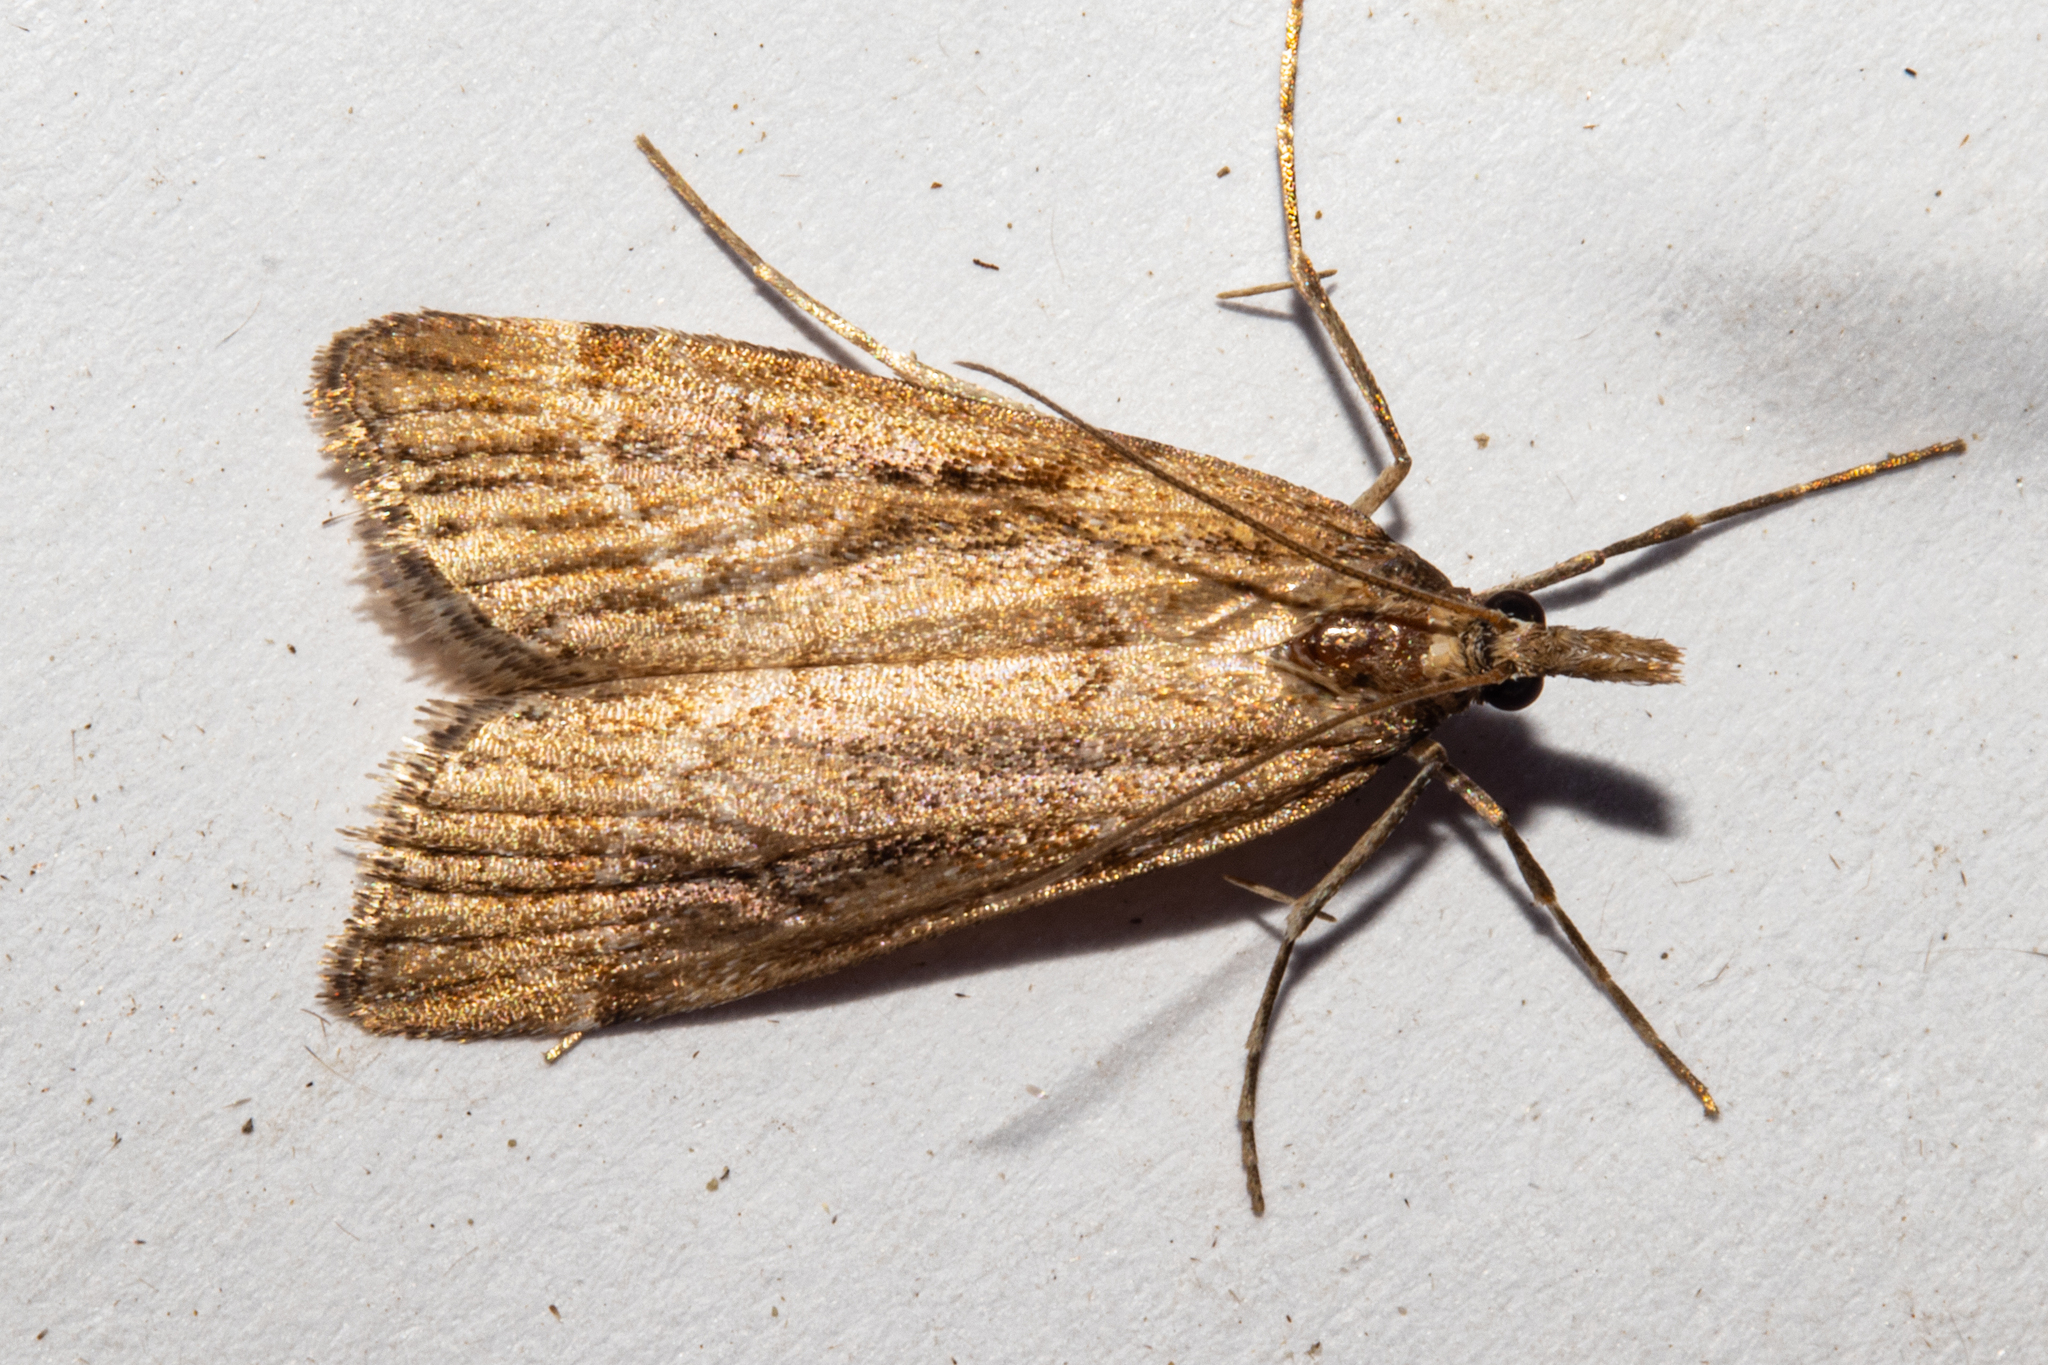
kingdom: Animalia
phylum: Arthropoda
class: Insecta
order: Lepidoptera
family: Crambidae
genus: Eudonia
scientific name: Eudonia chalara
